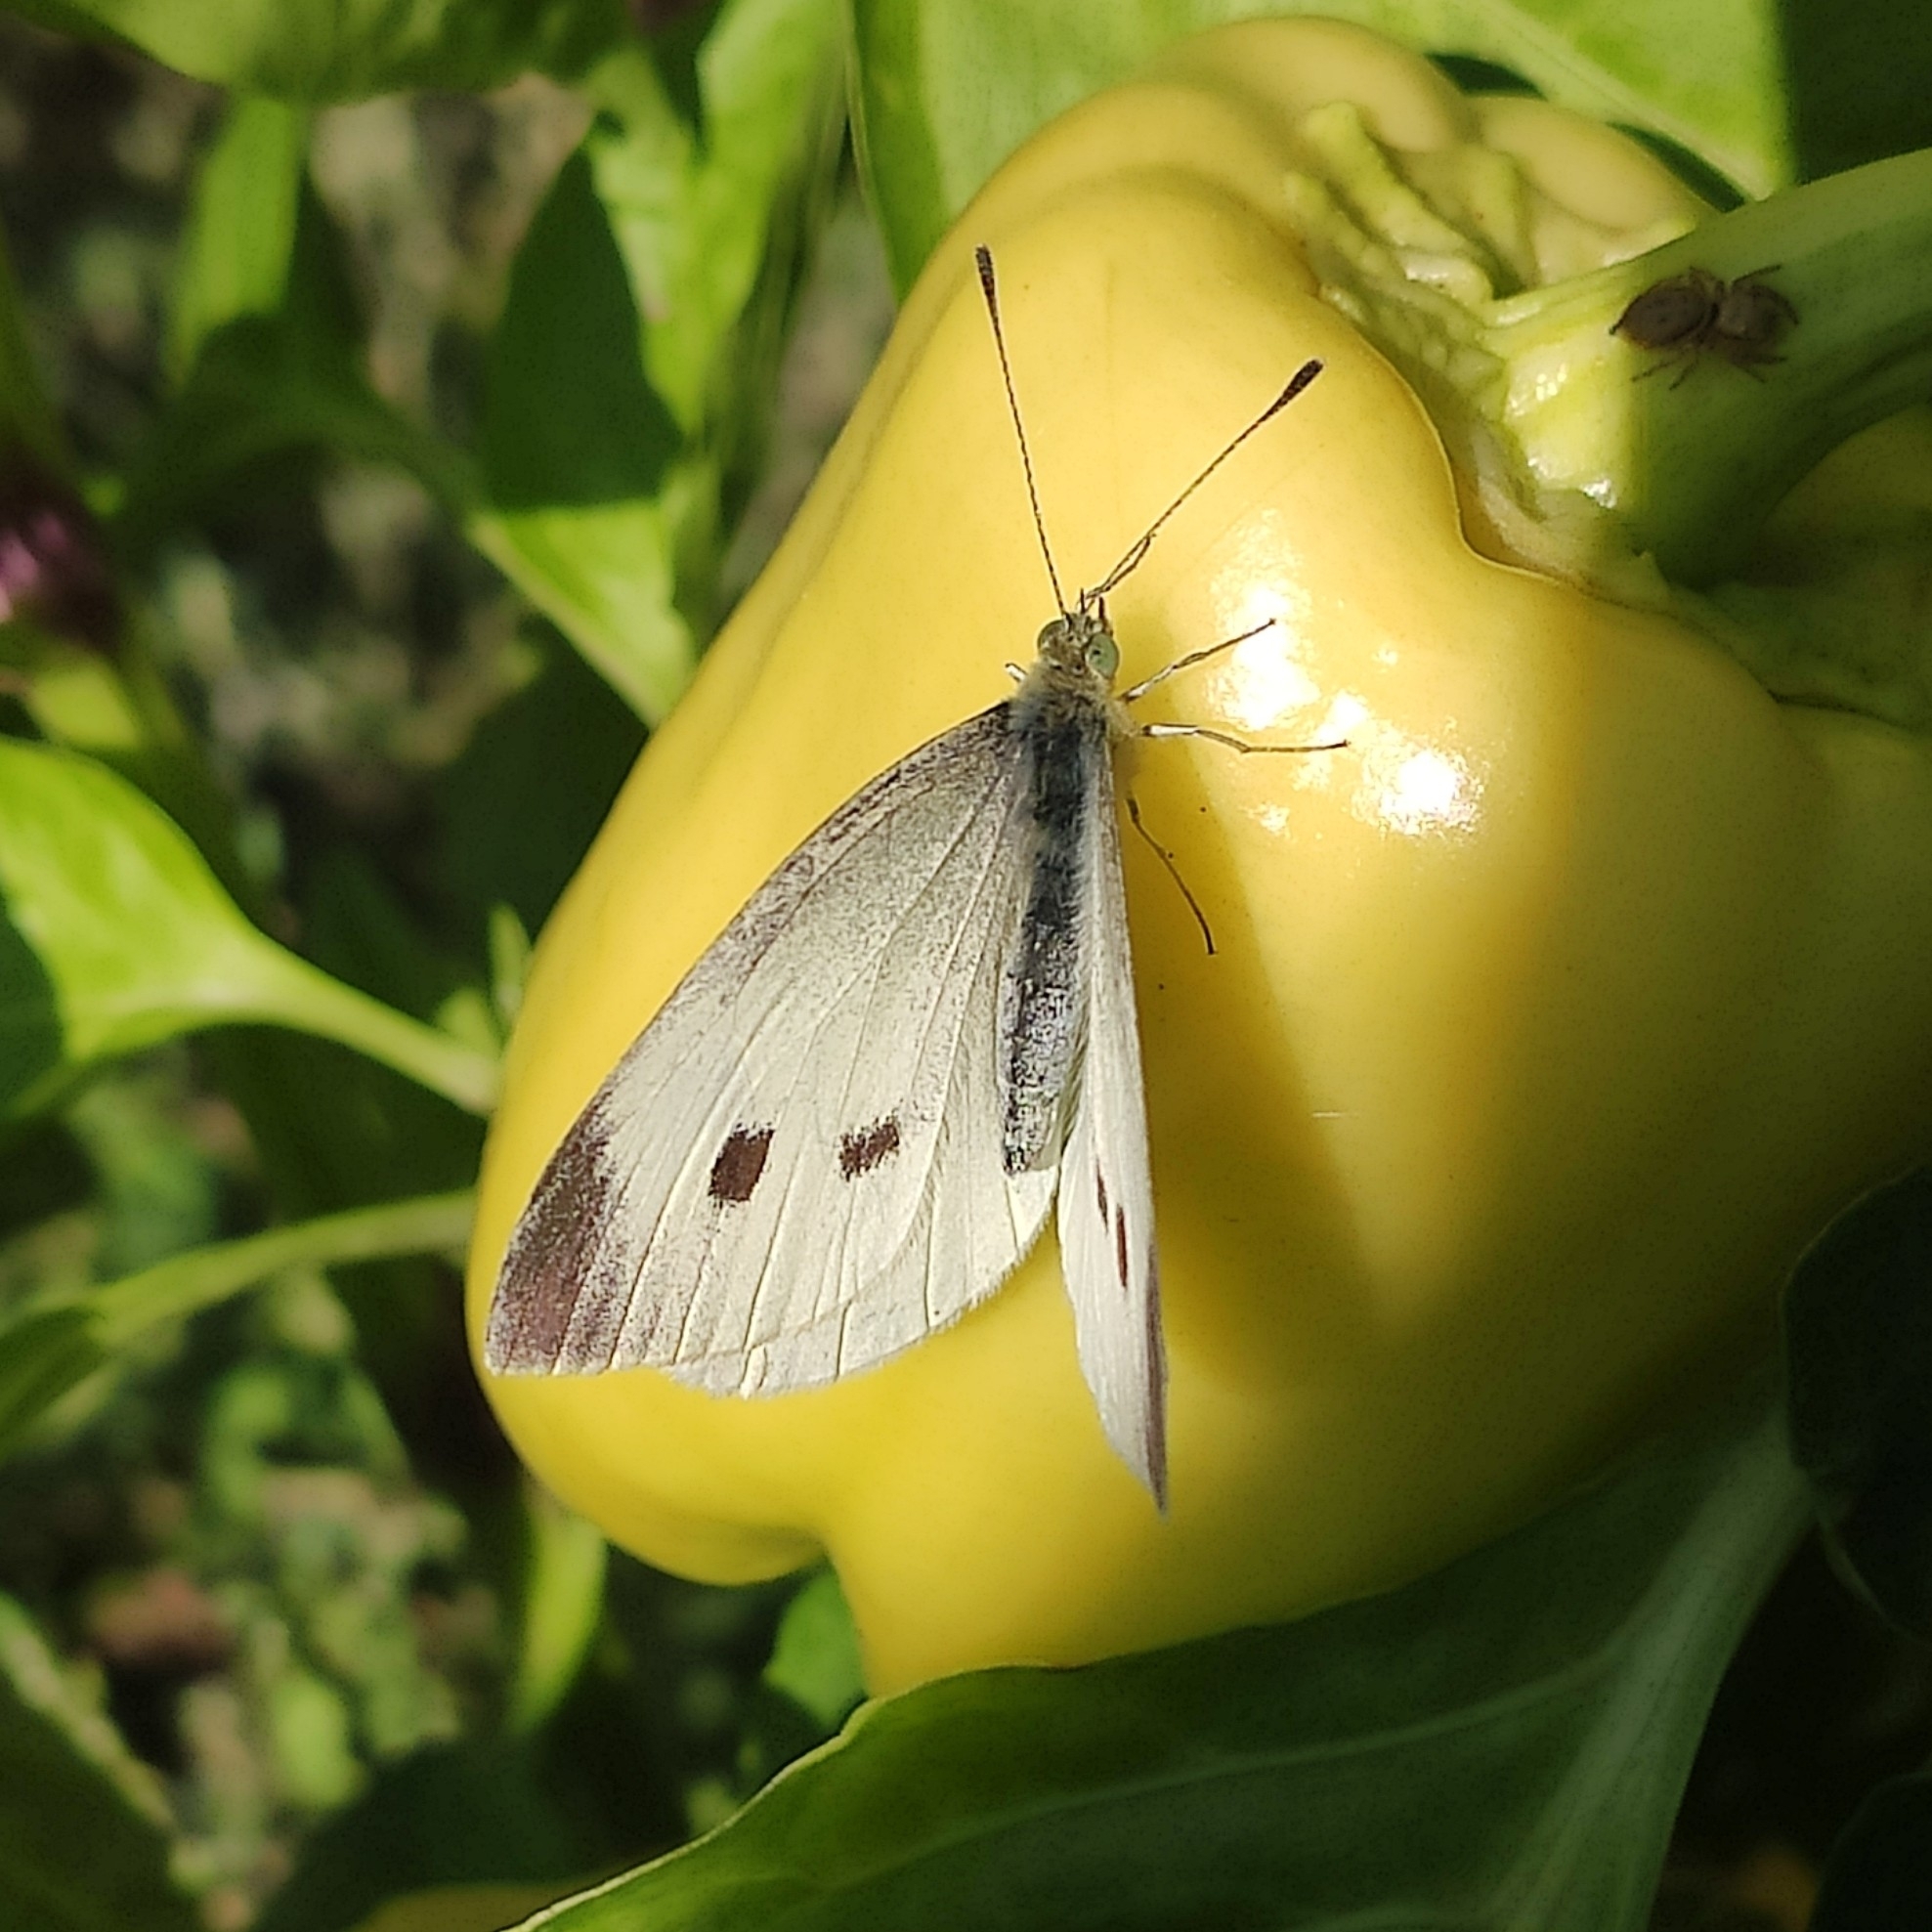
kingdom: Animalia
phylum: Arthropoda
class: Insecta
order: Lepidoptera
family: Pieridae
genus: Pieris
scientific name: Pieris rapae
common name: Small white
